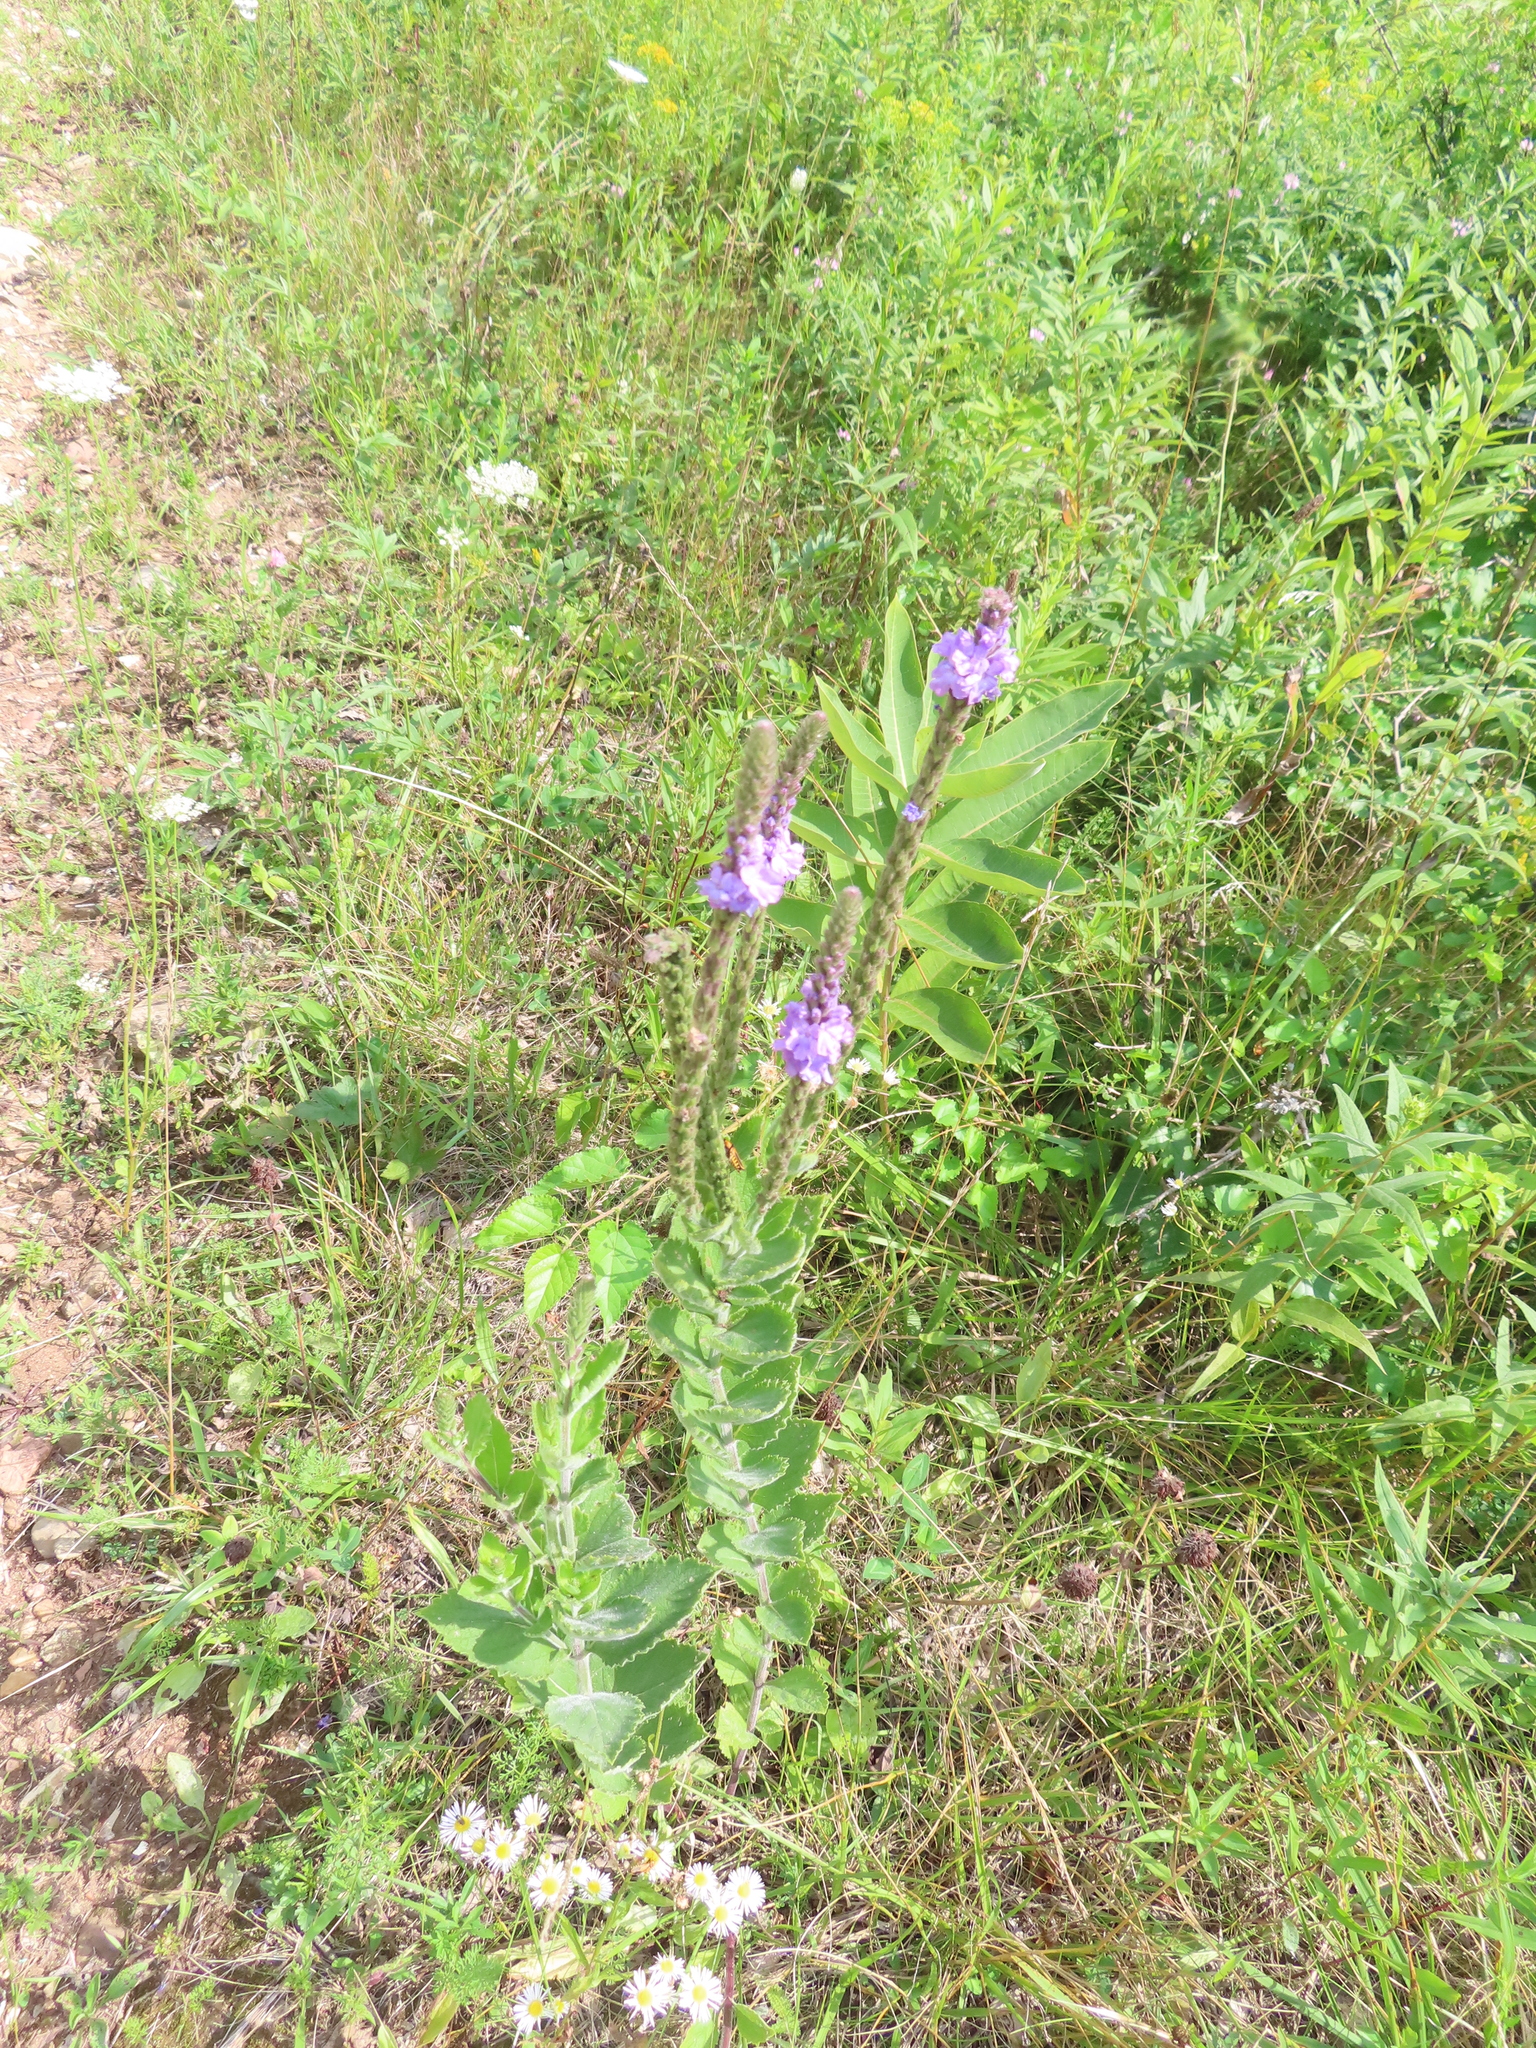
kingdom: Plantae
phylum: Tracheophyta
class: Magnoliopsida
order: Lamiales
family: Verbenaceae
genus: Verbena
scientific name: Verbena stricta
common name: Hoary vervain
